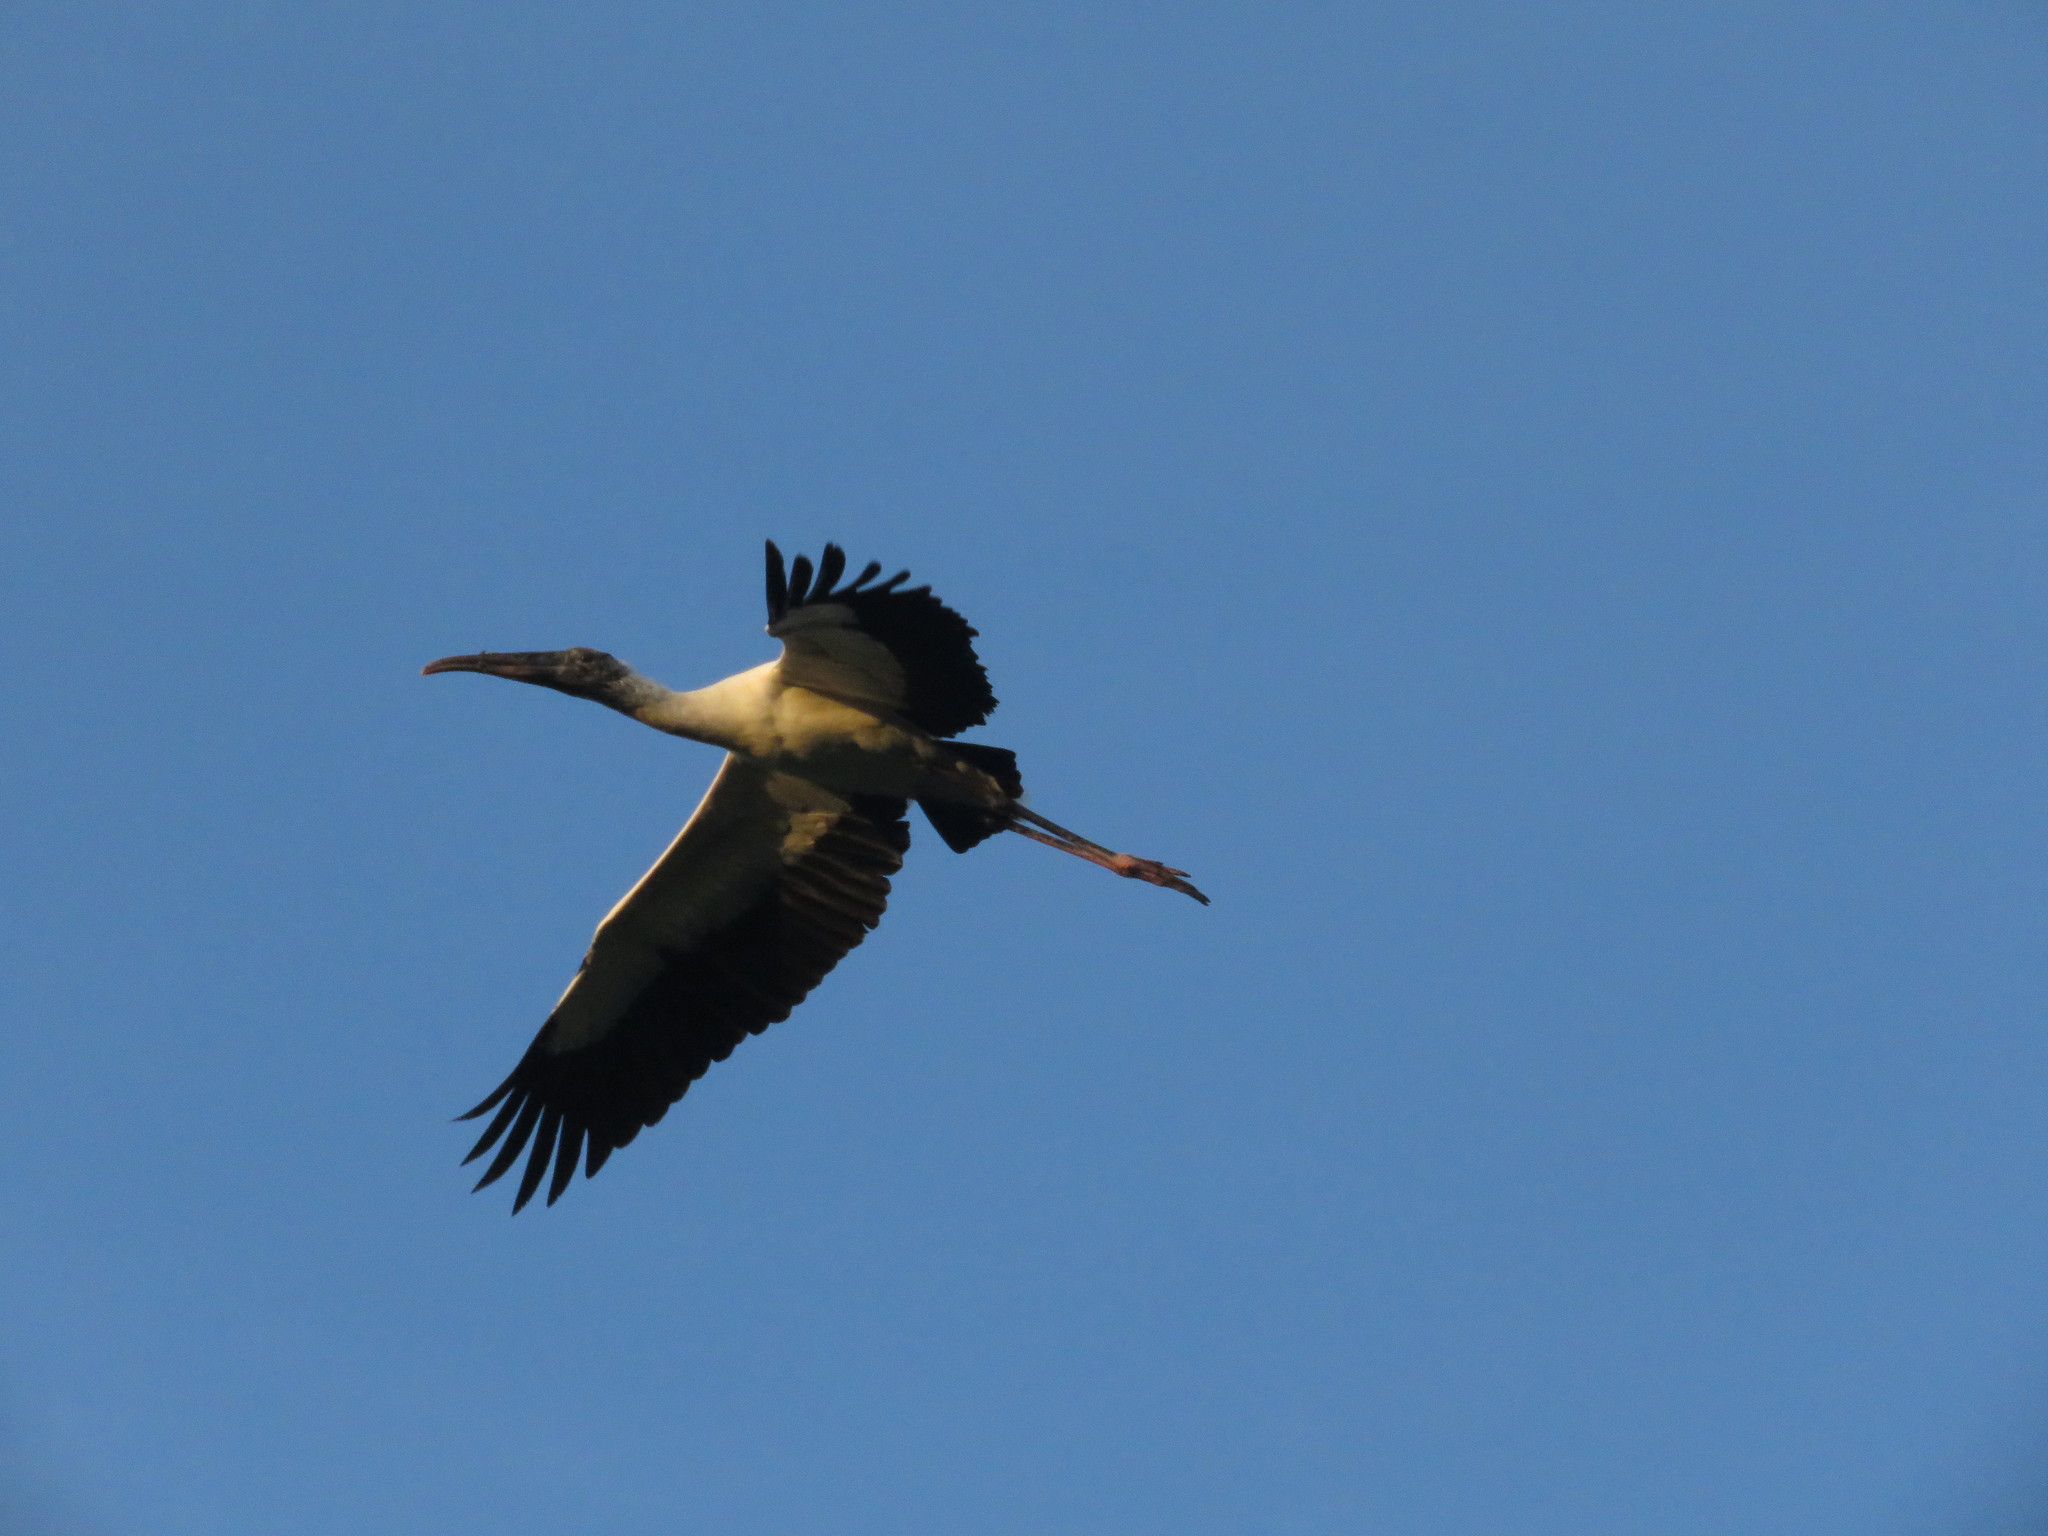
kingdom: Animalia
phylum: Chordata
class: Aves
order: Ciconiiformes
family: Ciconiidae
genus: Mycteria
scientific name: Mycteria americana
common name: Wood stork
